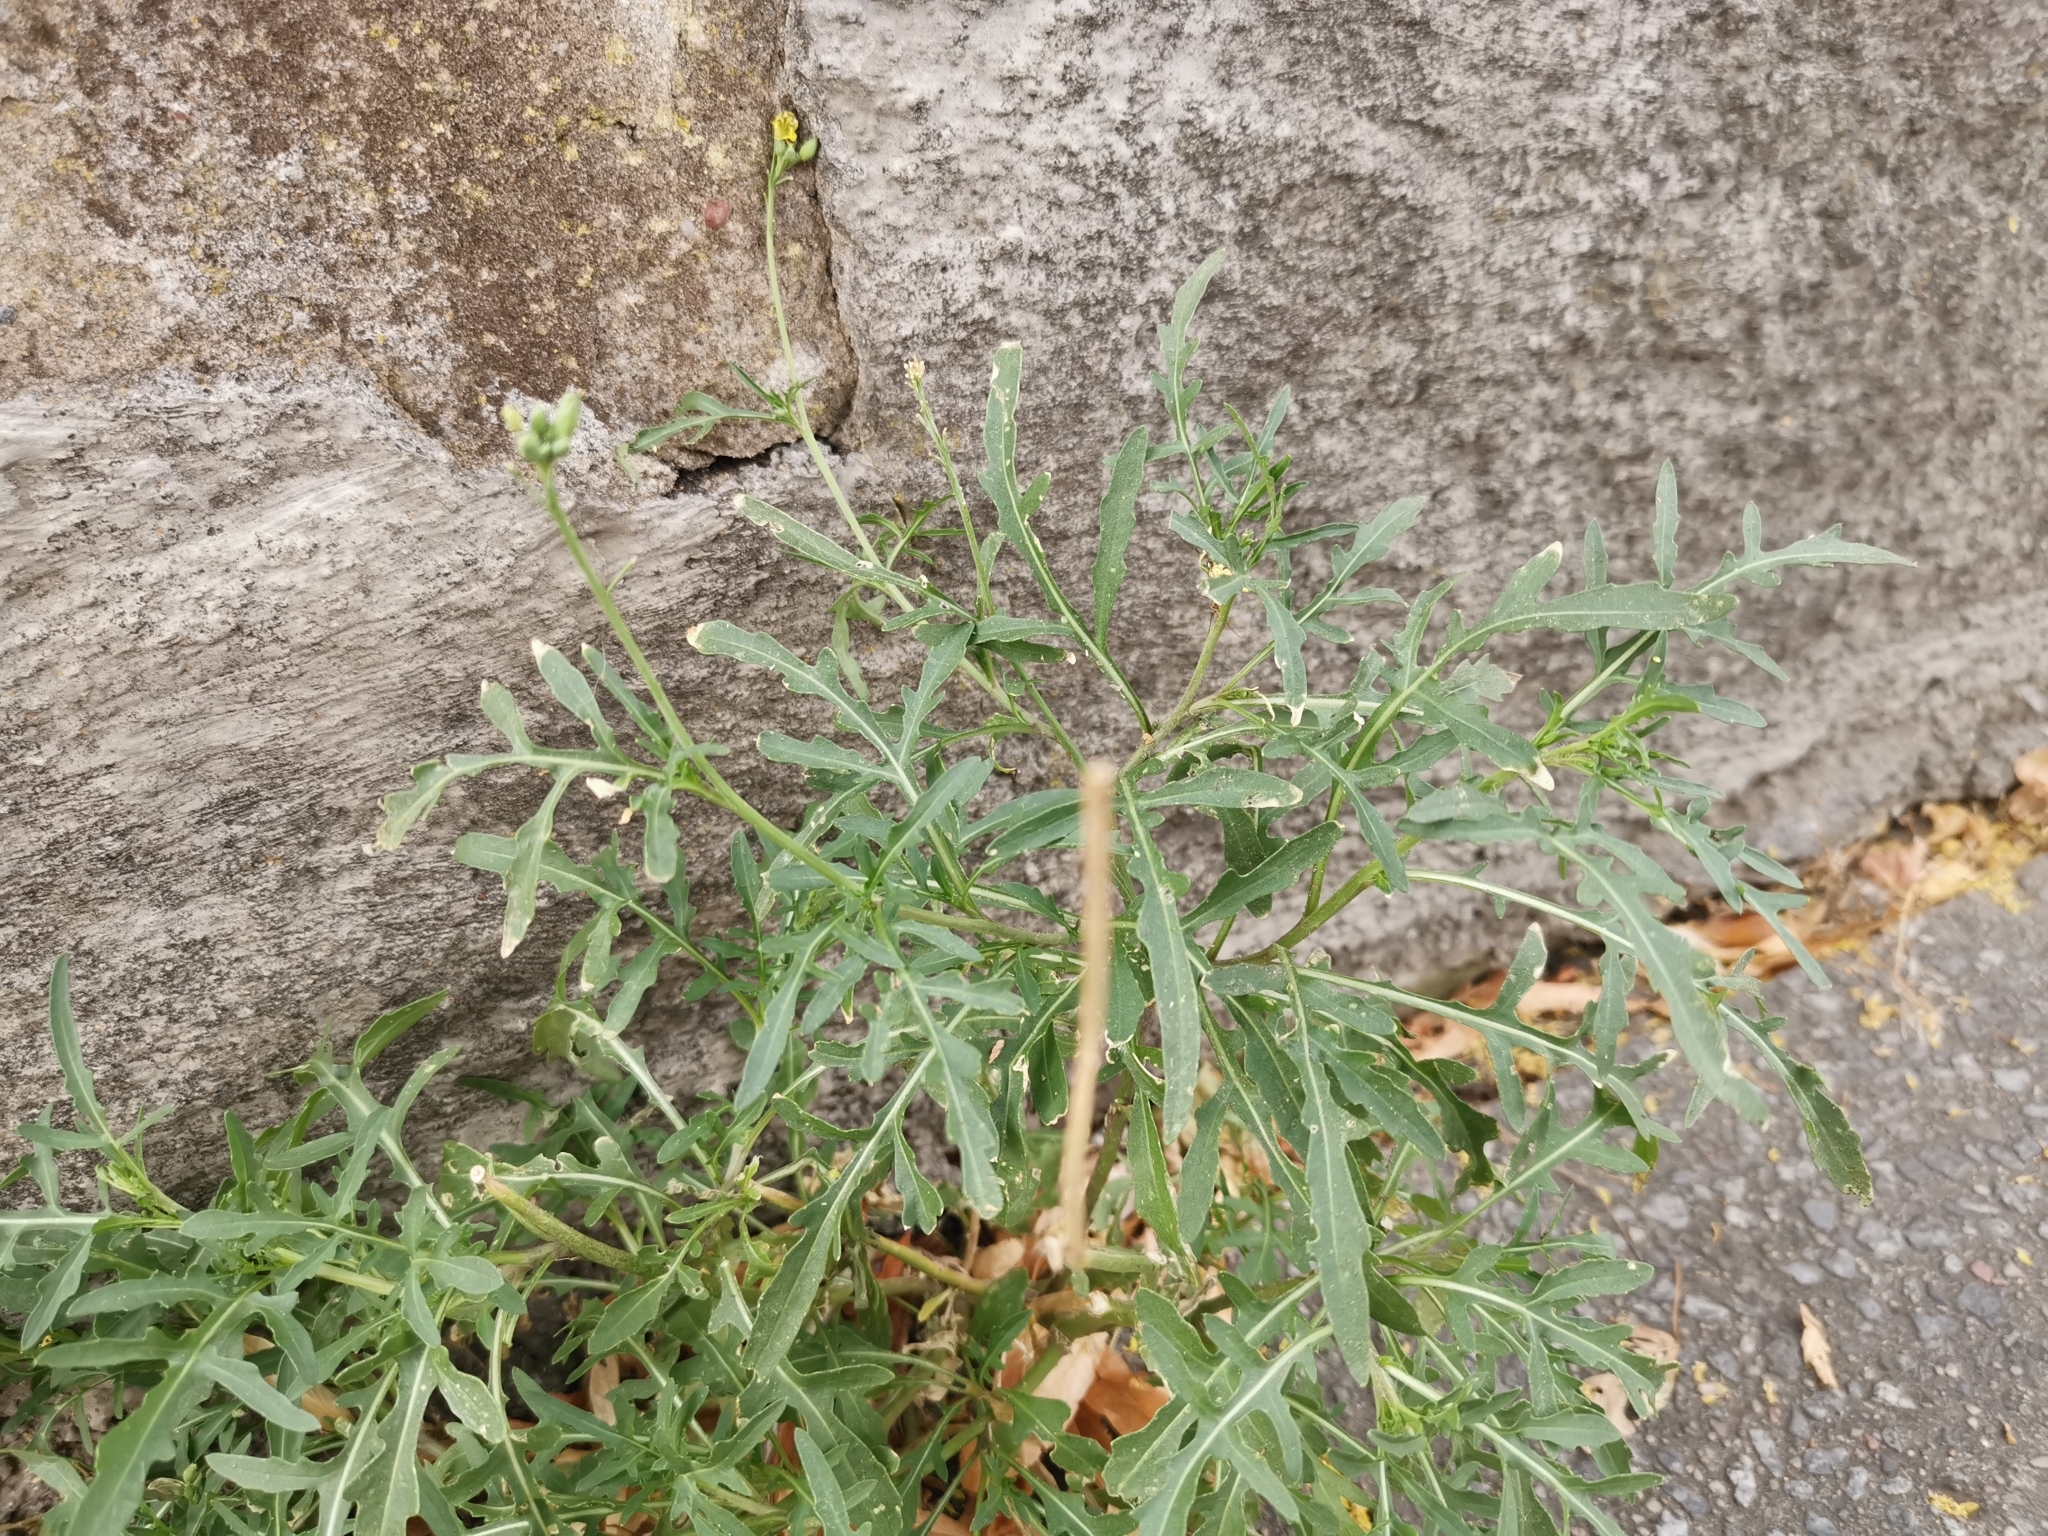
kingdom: Plantae
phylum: Tracheophyta
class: Magnoliopsida
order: Brassicales
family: Brassicaceae
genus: Diplotaxis
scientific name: Diplotaxis tenuifolia
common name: Perennial wall-rocket
